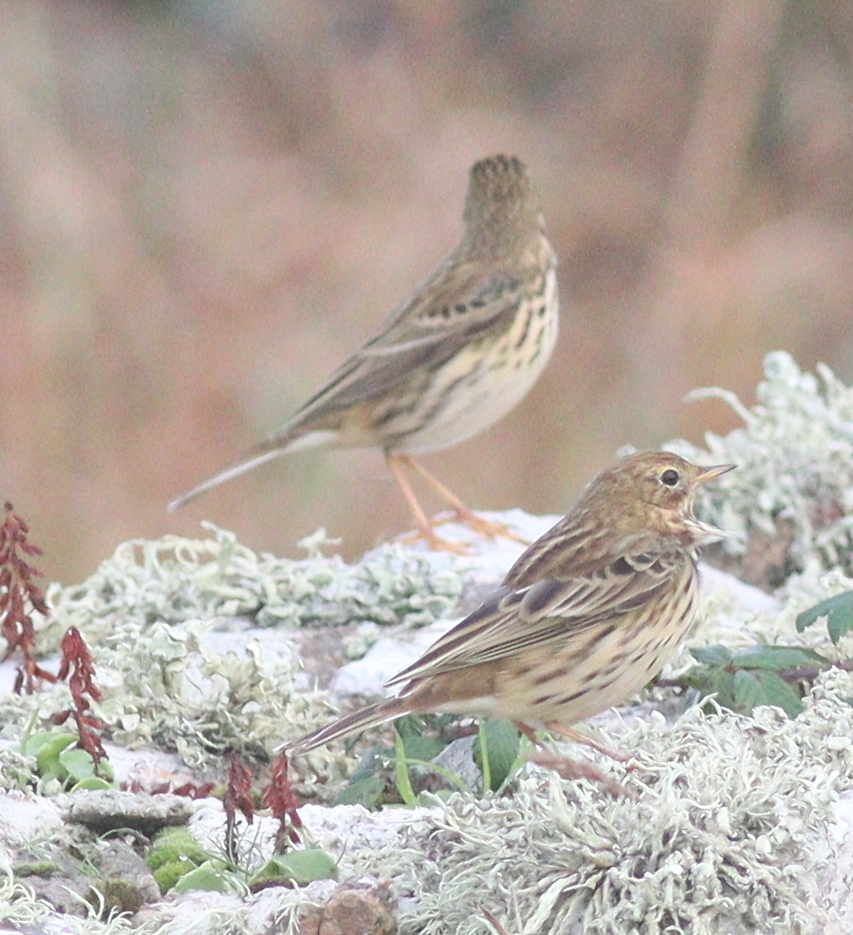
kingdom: Animalia
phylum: Chordata
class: Aves
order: Passeriformes
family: Motacillidae
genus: Anthus
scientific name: Anthus pratensis
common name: Meadow pipit
